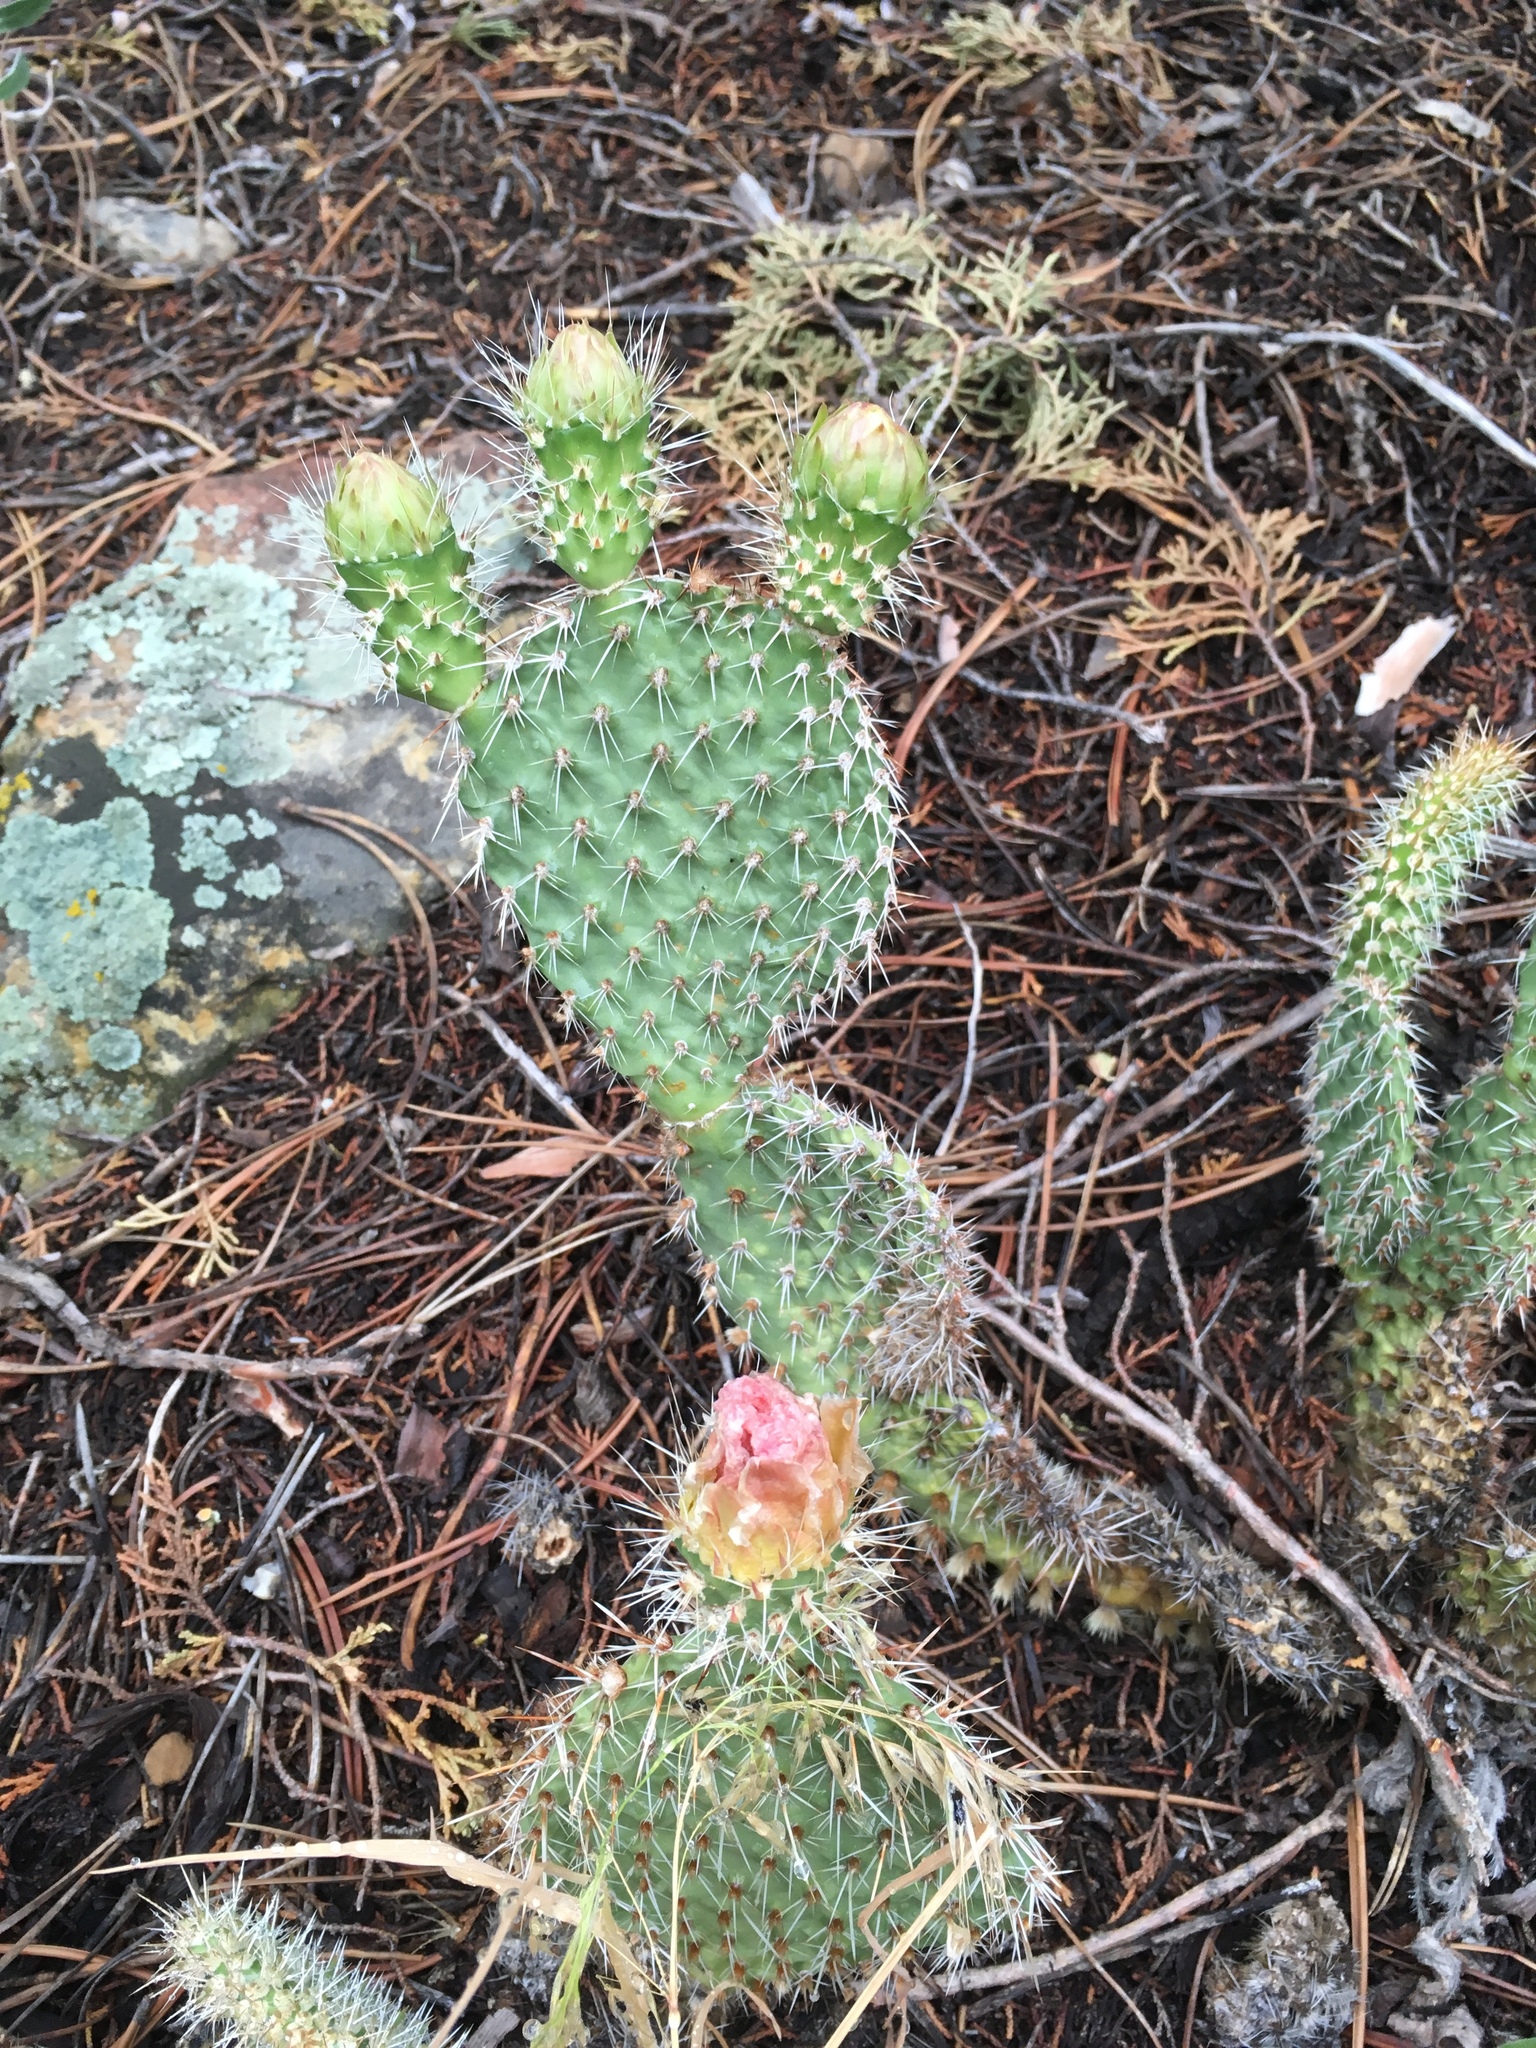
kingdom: Plantae
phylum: Tracheophyta
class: Magnoliopsida
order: Caryophyllales
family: Cactaceae
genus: Opuntia
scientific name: Opuntia polyacantha
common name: Plains prickly-pear
